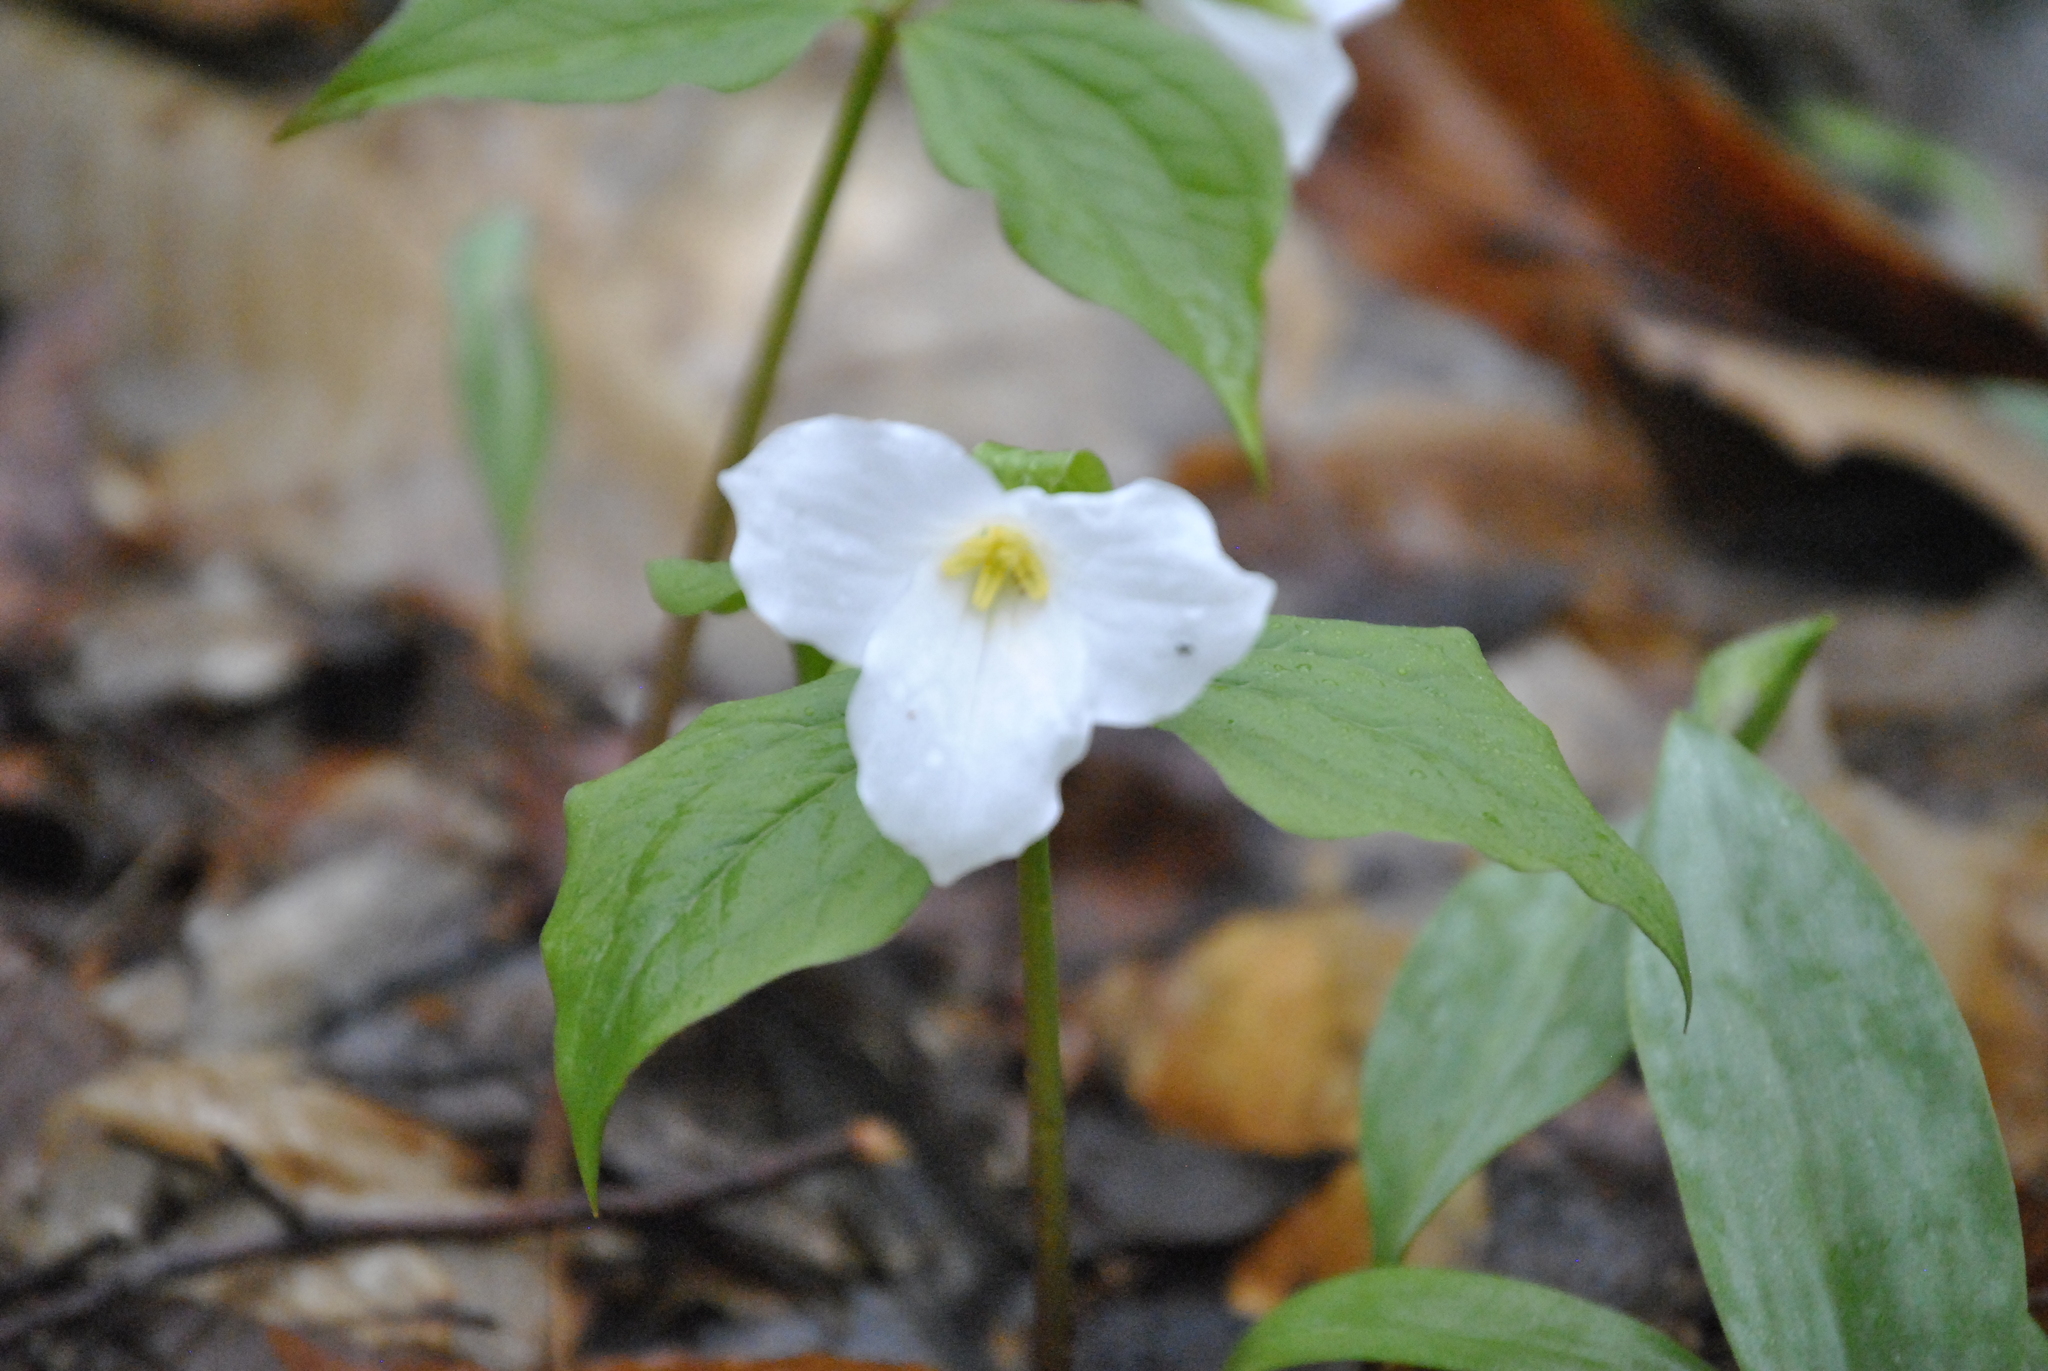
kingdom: Plantae
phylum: Tracheophyta
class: Liliopsida
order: Liliales
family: Melanthiaceae
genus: Trillium
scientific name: Trillium grandiflorum
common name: Great white trillium
